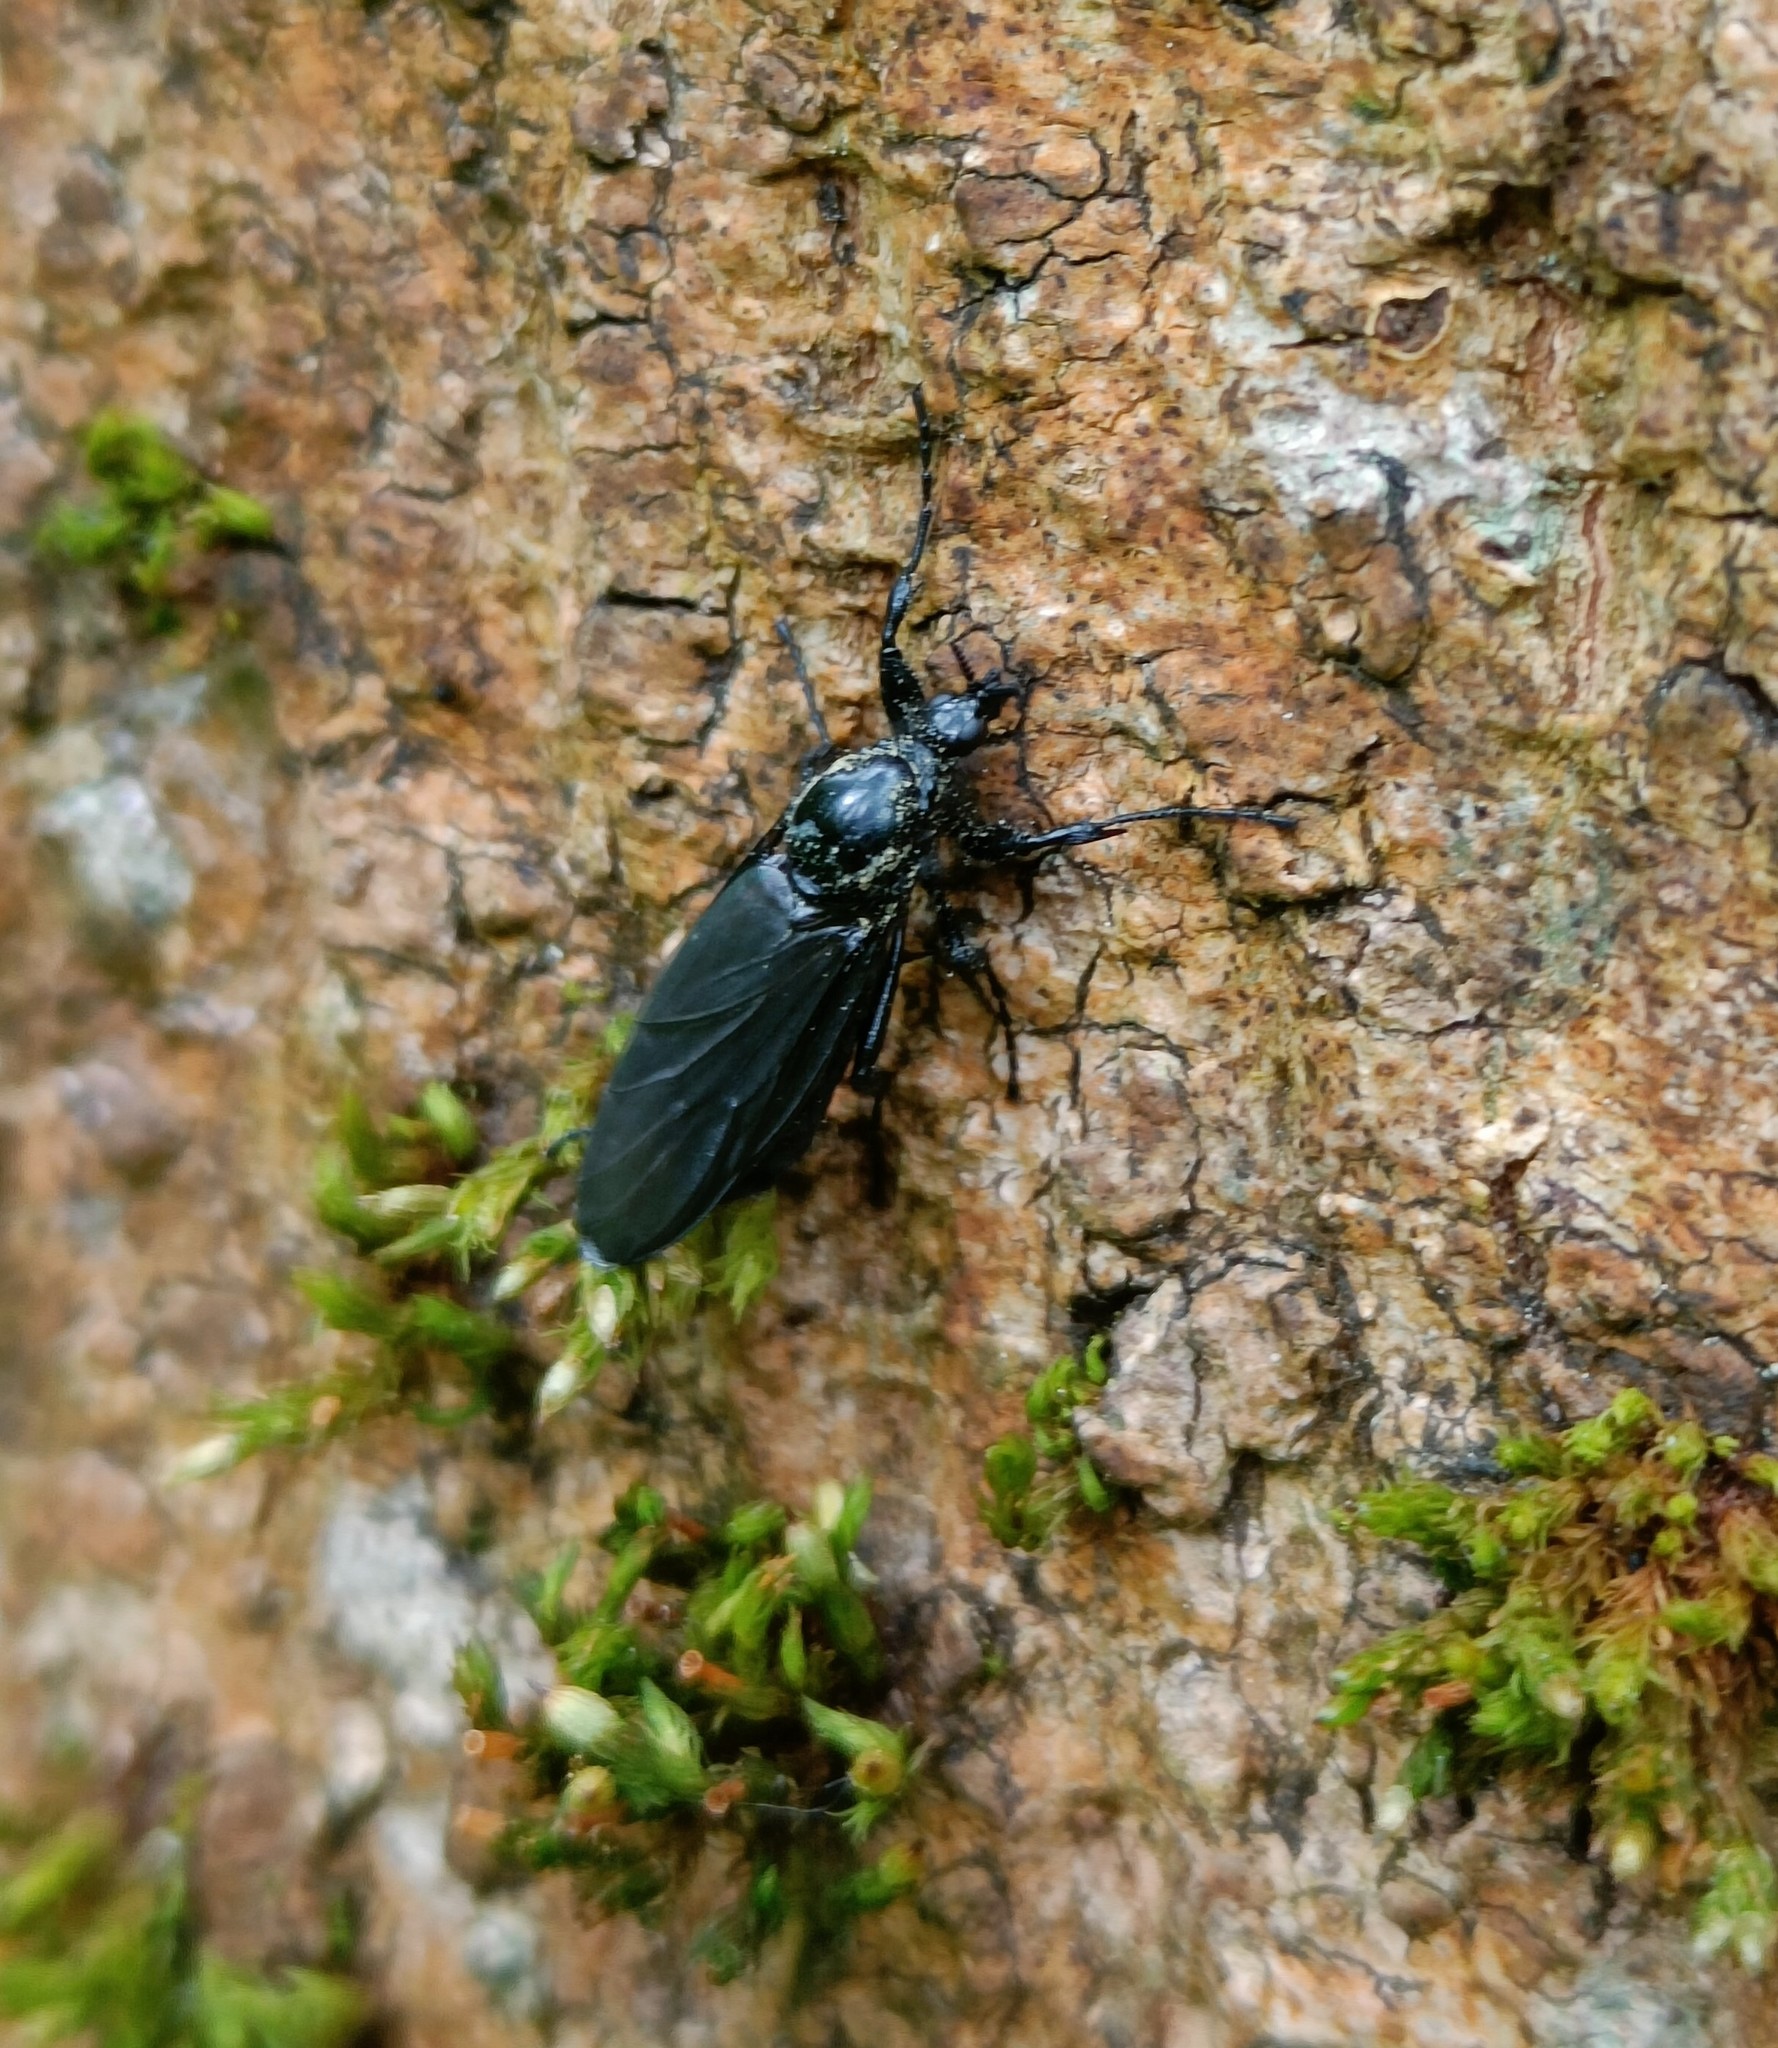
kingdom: Animalia
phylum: Arthropoda
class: Insecta
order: Diptera
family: Bibionidae
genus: Bibio
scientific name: Bibio marci
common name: St marks fly
